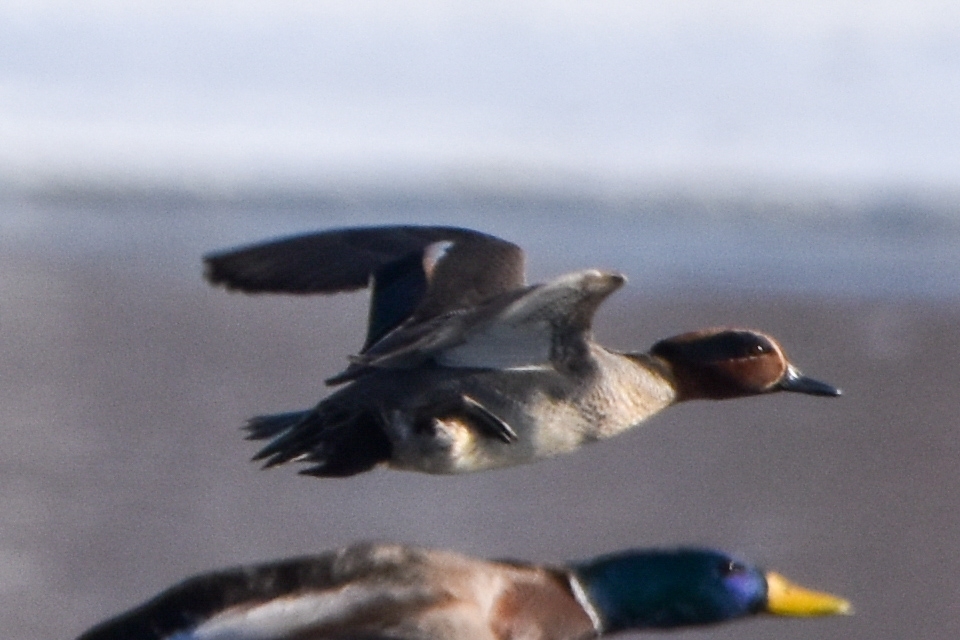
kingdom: Animalia
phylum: Chordata
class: Aves
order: Anseriformes
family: Anatidae
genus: Anas
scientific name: Anas crecca
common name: Eurasian teal
